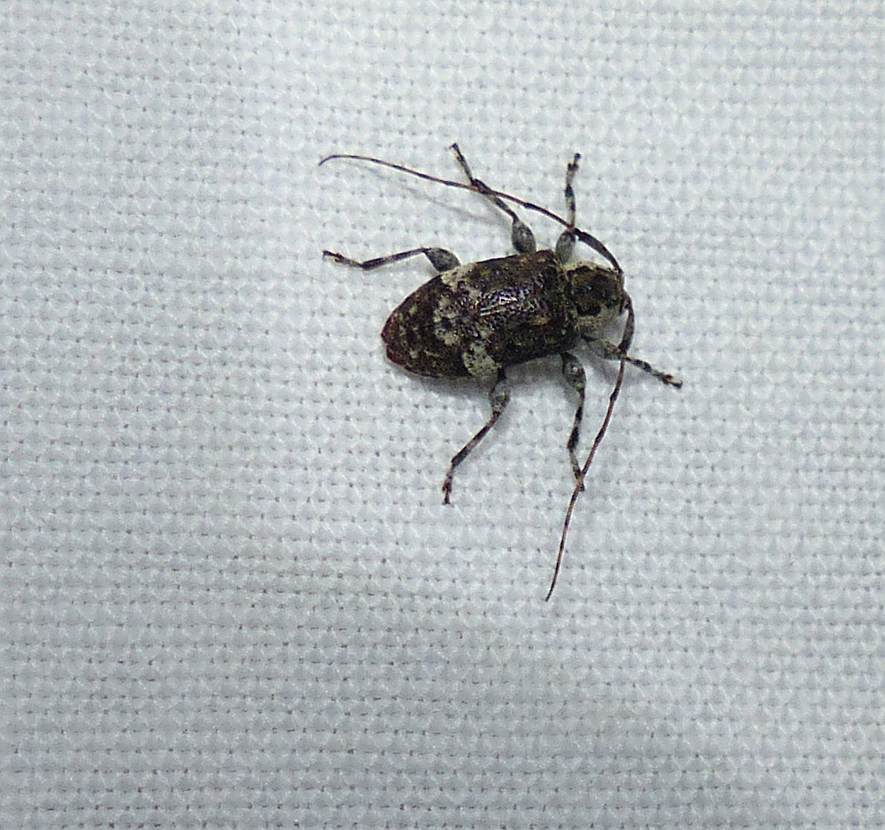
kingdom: Animalia
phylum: Arthropoda
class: Insecta
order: Coleoptera
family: Cerambycidae
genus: Astylopsis
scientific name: Astylopsis macula
